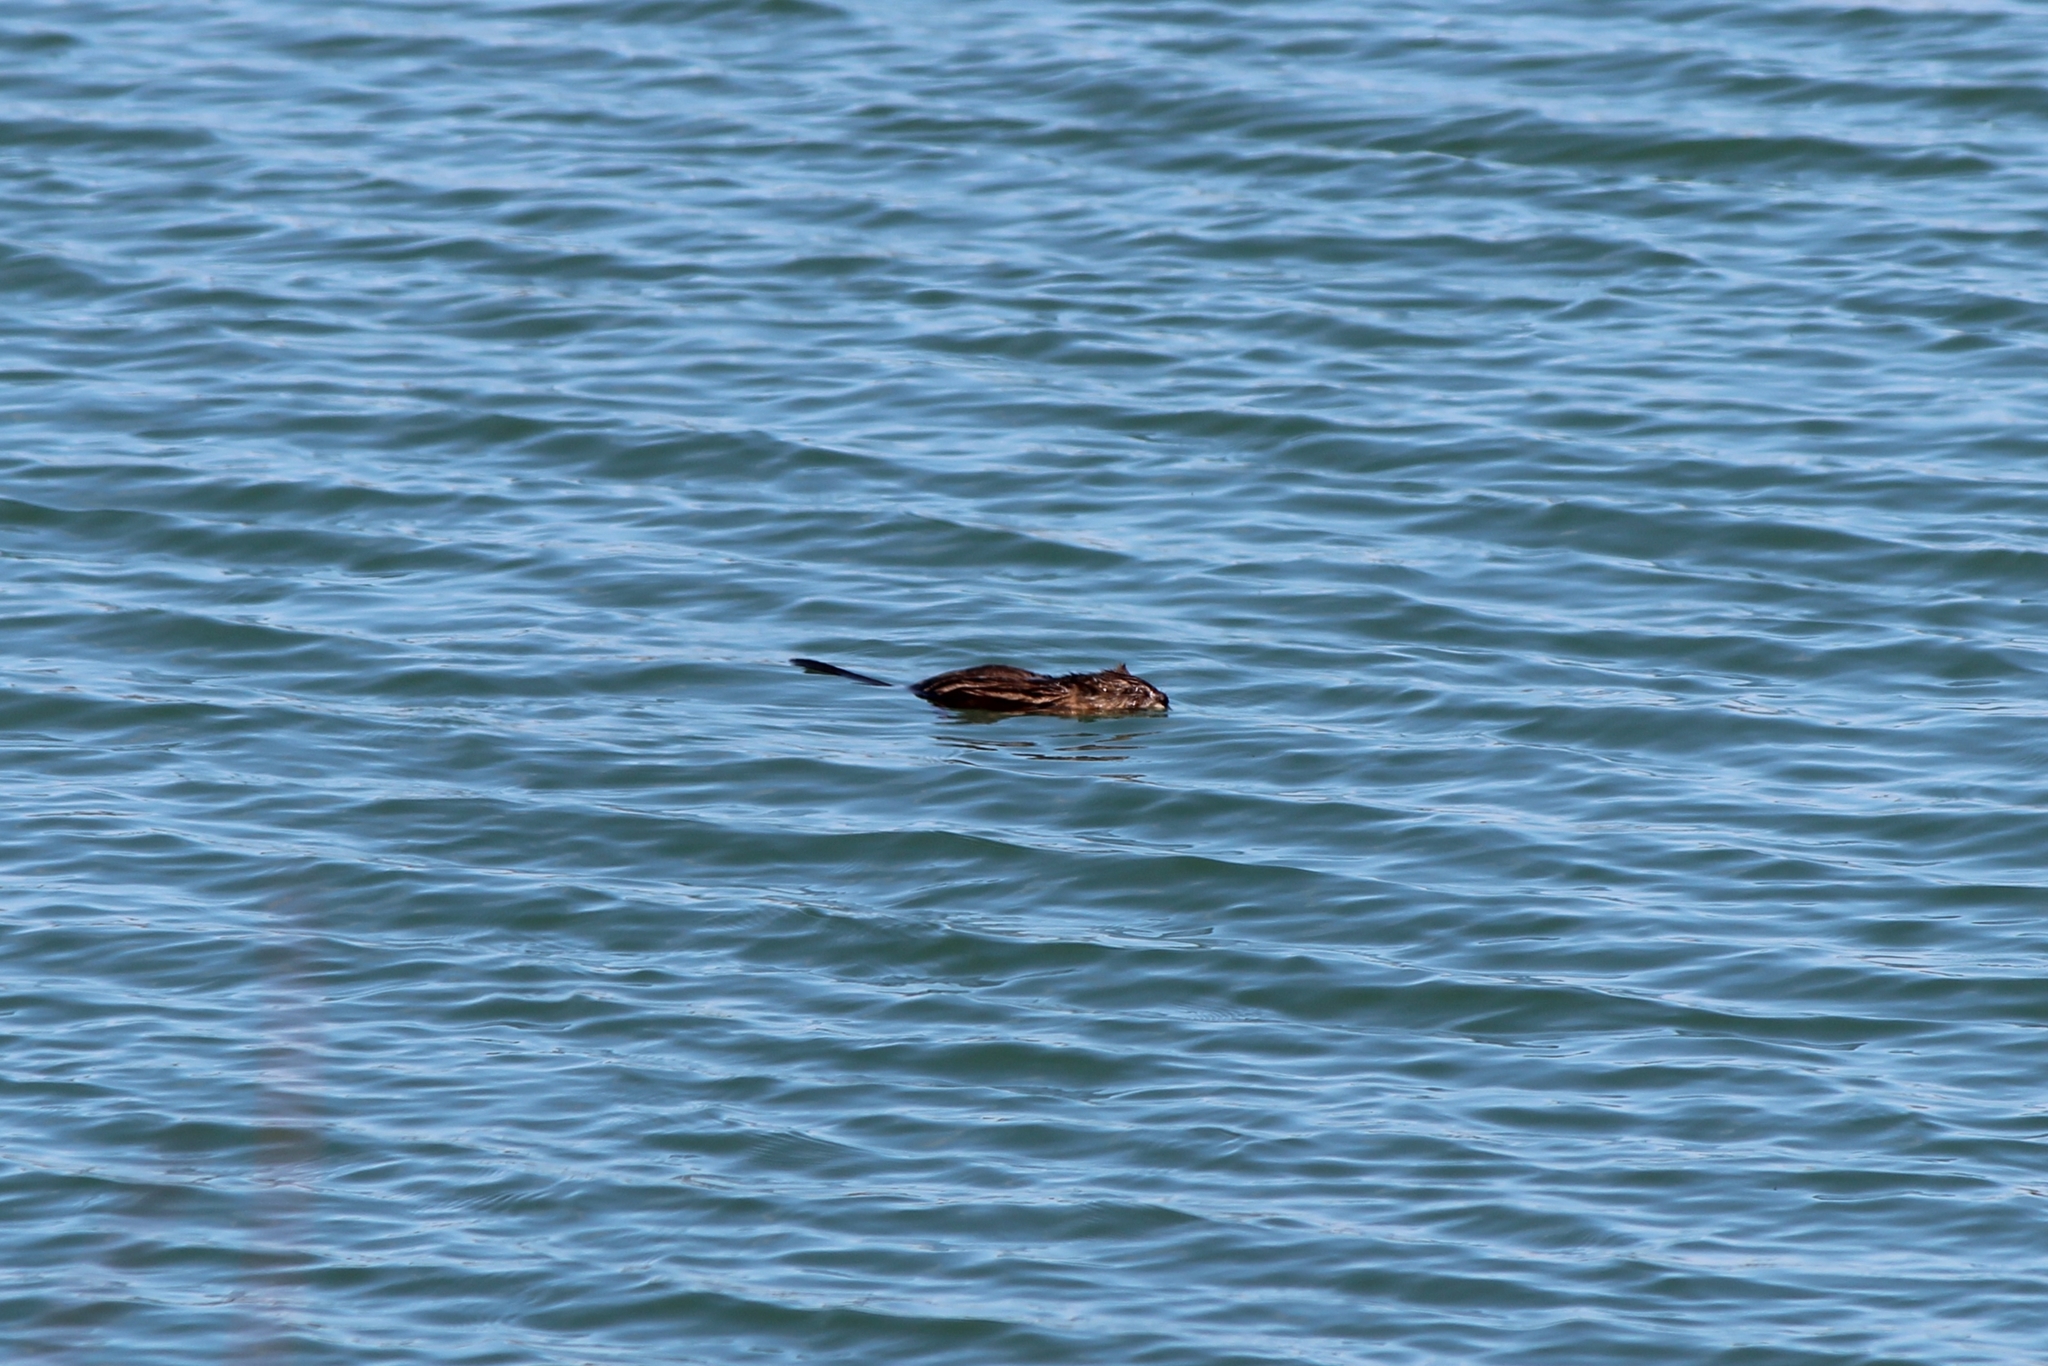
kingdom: Animalia
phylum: Chordata
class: Mammalia
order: Rodentia
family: Cricetidae
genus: Ondatra
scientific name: Ondatra zibethicus
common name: Muskrat
